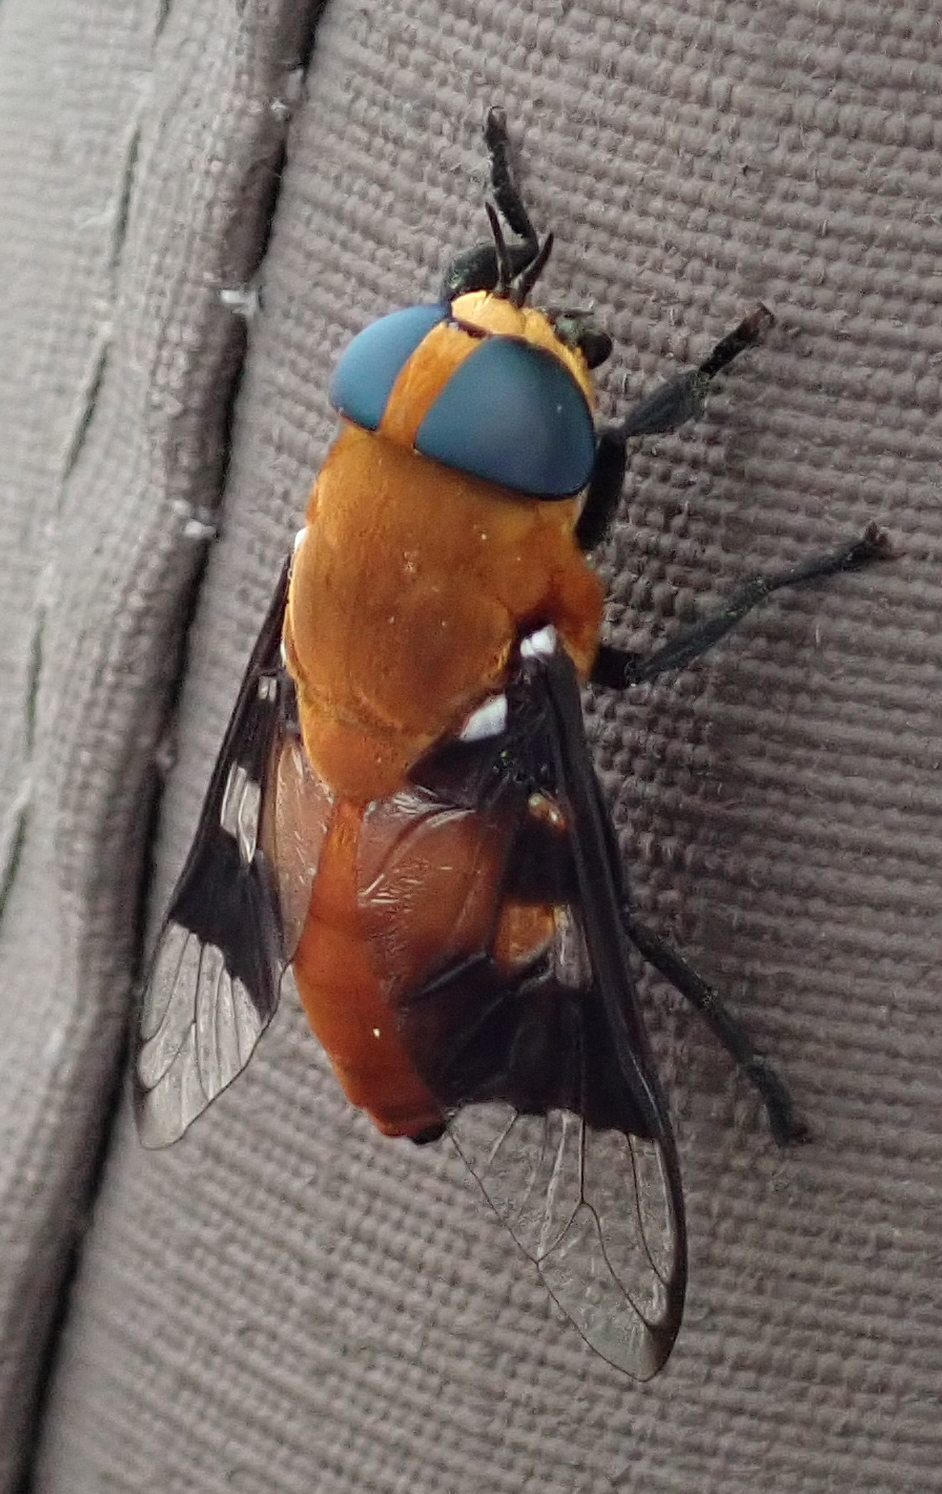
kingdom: Animalia
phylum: Arthropoda
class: Insecta
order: Diptera
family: Tabanidae
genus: Ancala
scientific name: Ancala africana
